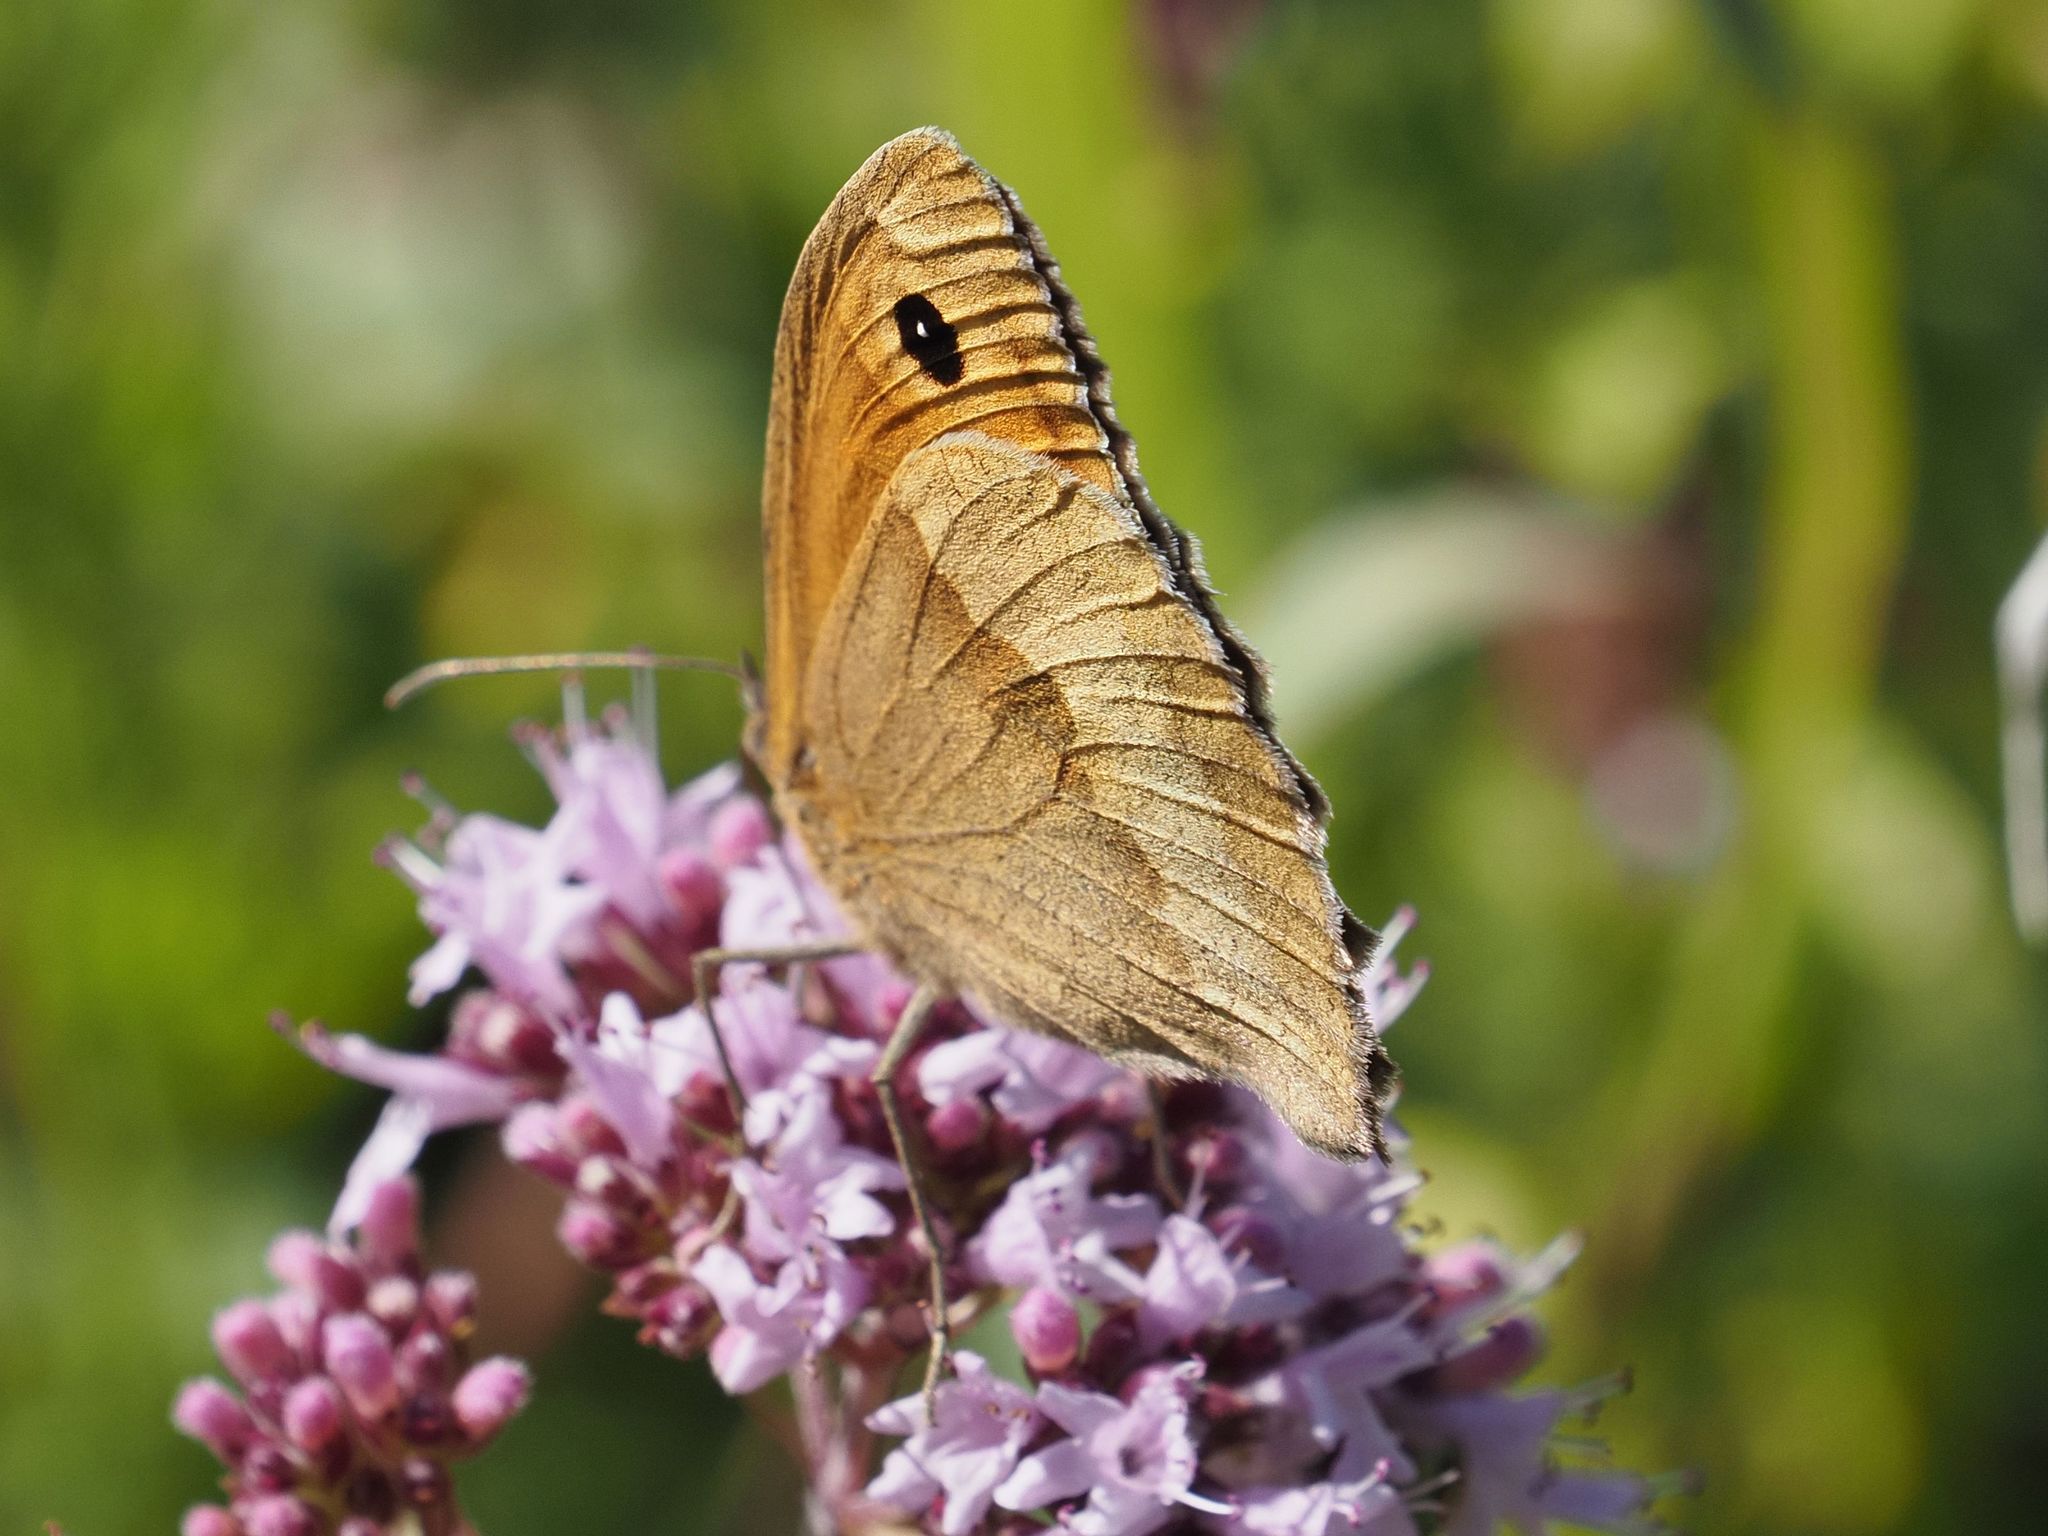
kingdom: Animalia
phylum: Arthropoda
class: Insecta
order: Lepidoptera
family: Nymphalidae
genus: Maniola
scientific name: Maniola jurtina
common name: Meadow brown
